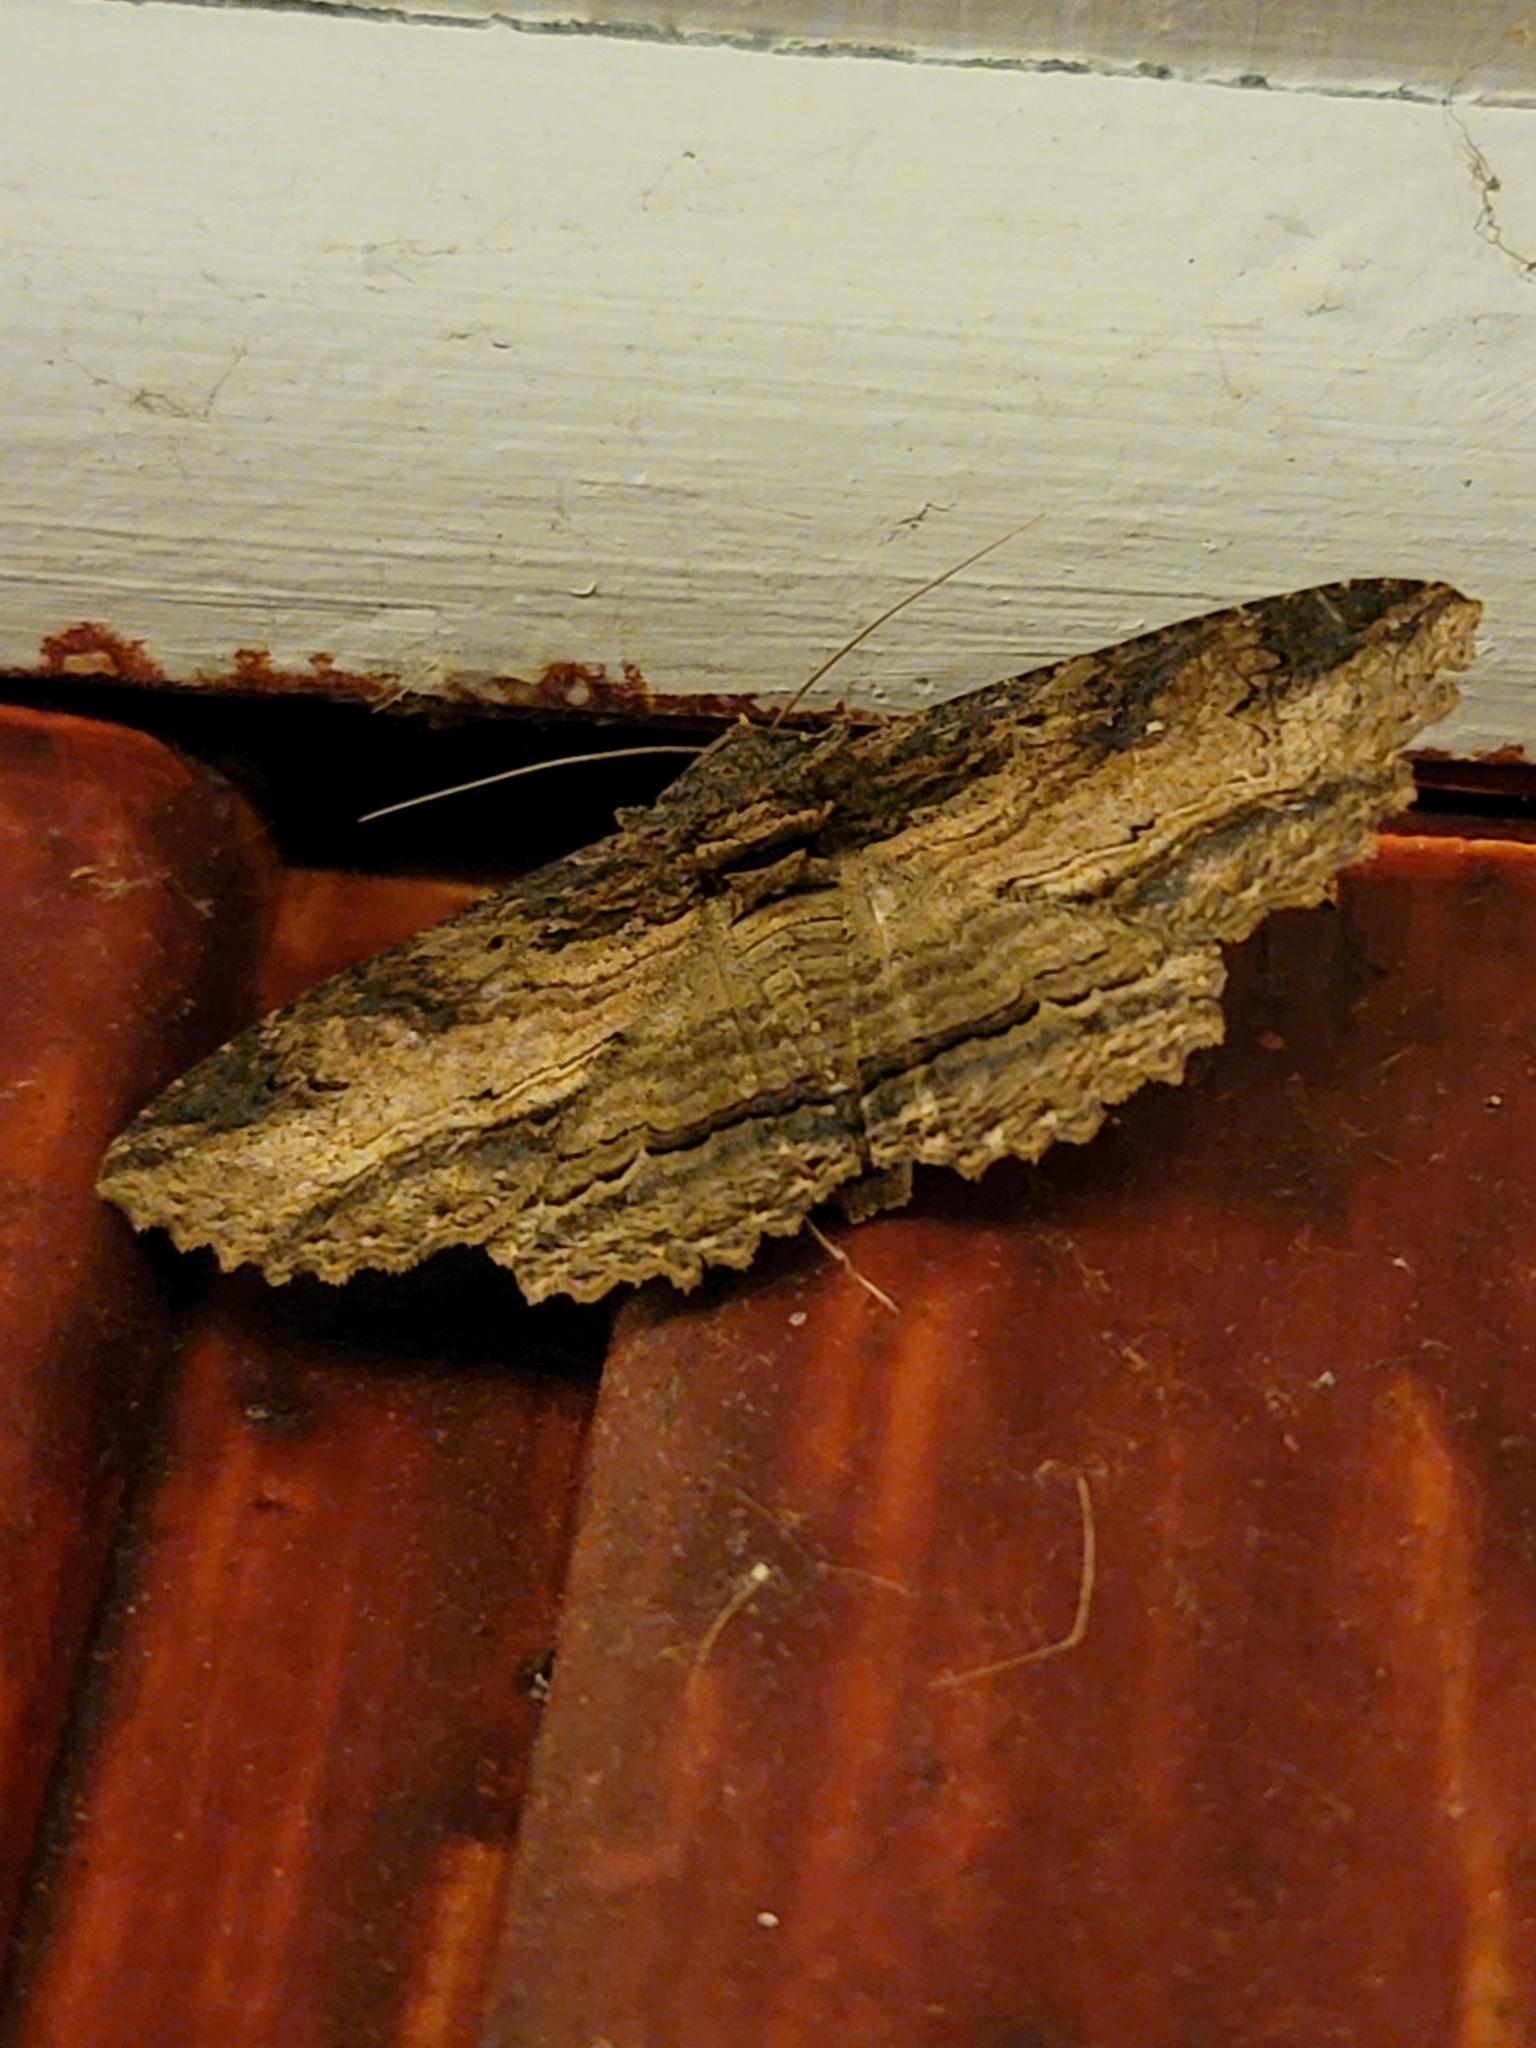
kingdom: Animalia
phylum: Arthropoda
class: Insecta
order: Lepidoptera
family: Erebidae
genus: Zale
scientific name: Zale lunata
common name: Lunate zale moth
